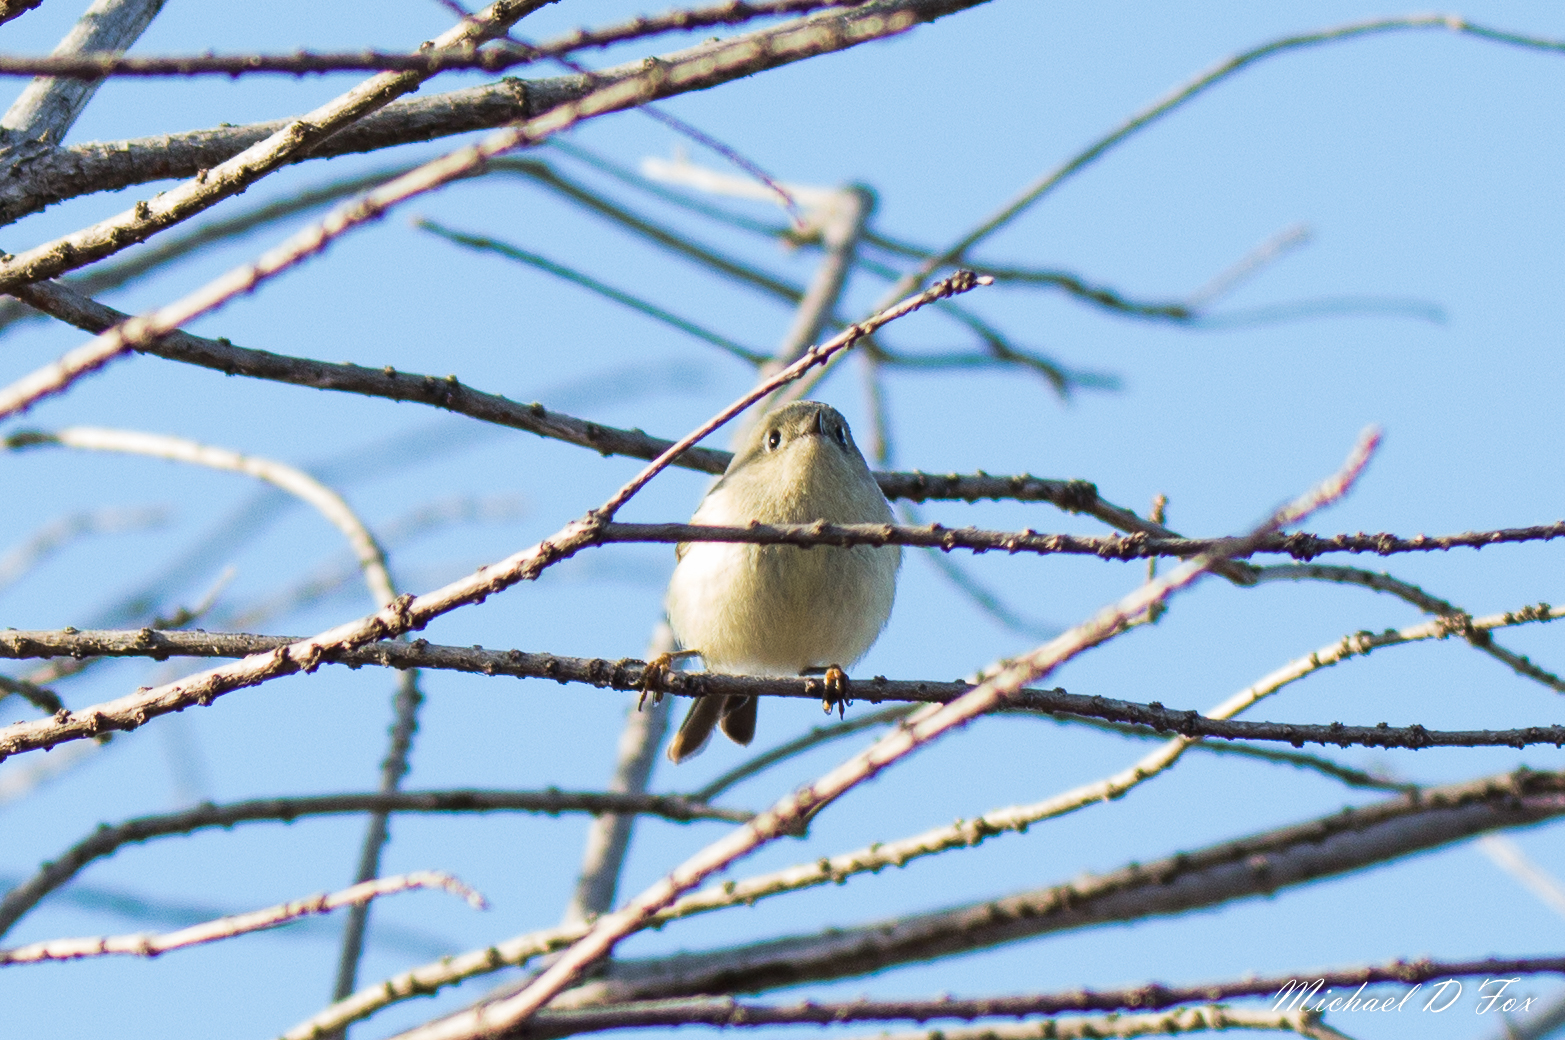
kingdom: Animalia
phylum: Chordata
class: Aves
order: Passeriformes
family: Regulidae
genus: Regulus
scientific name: Regulus calendula
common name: Ruby-crowned kinglet
